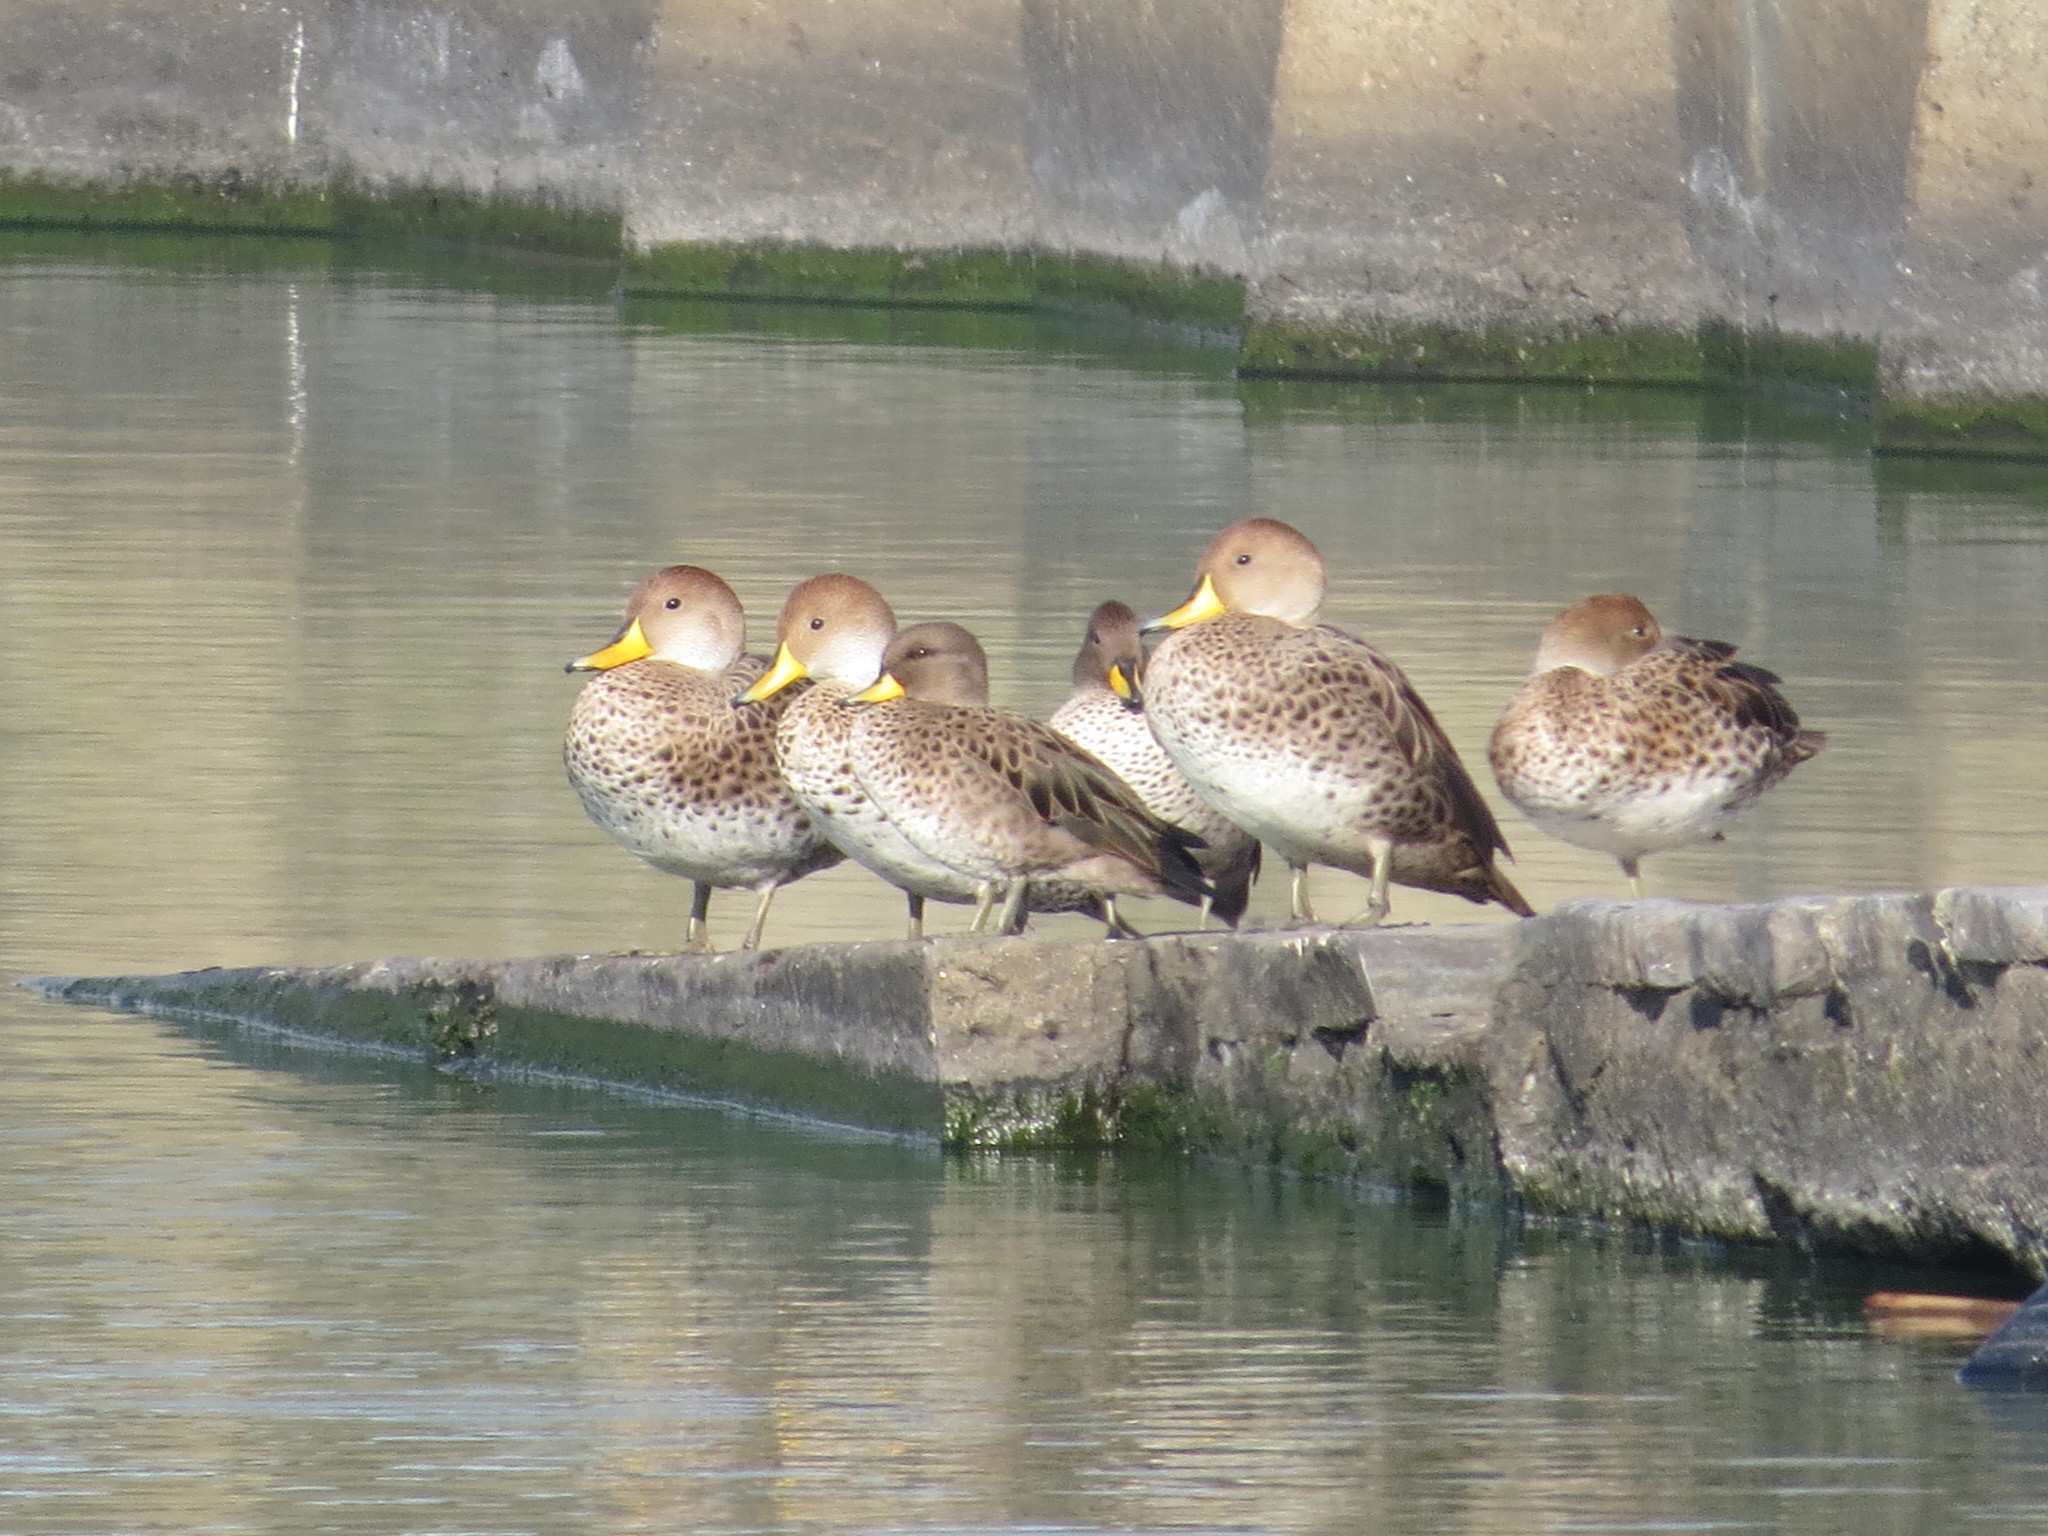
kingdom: Animalia
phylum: Chordata
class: Aves
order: Anseriformes
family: Anatidae
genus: Anas
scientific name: Anas georgica
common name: Yellow-billed pintail
